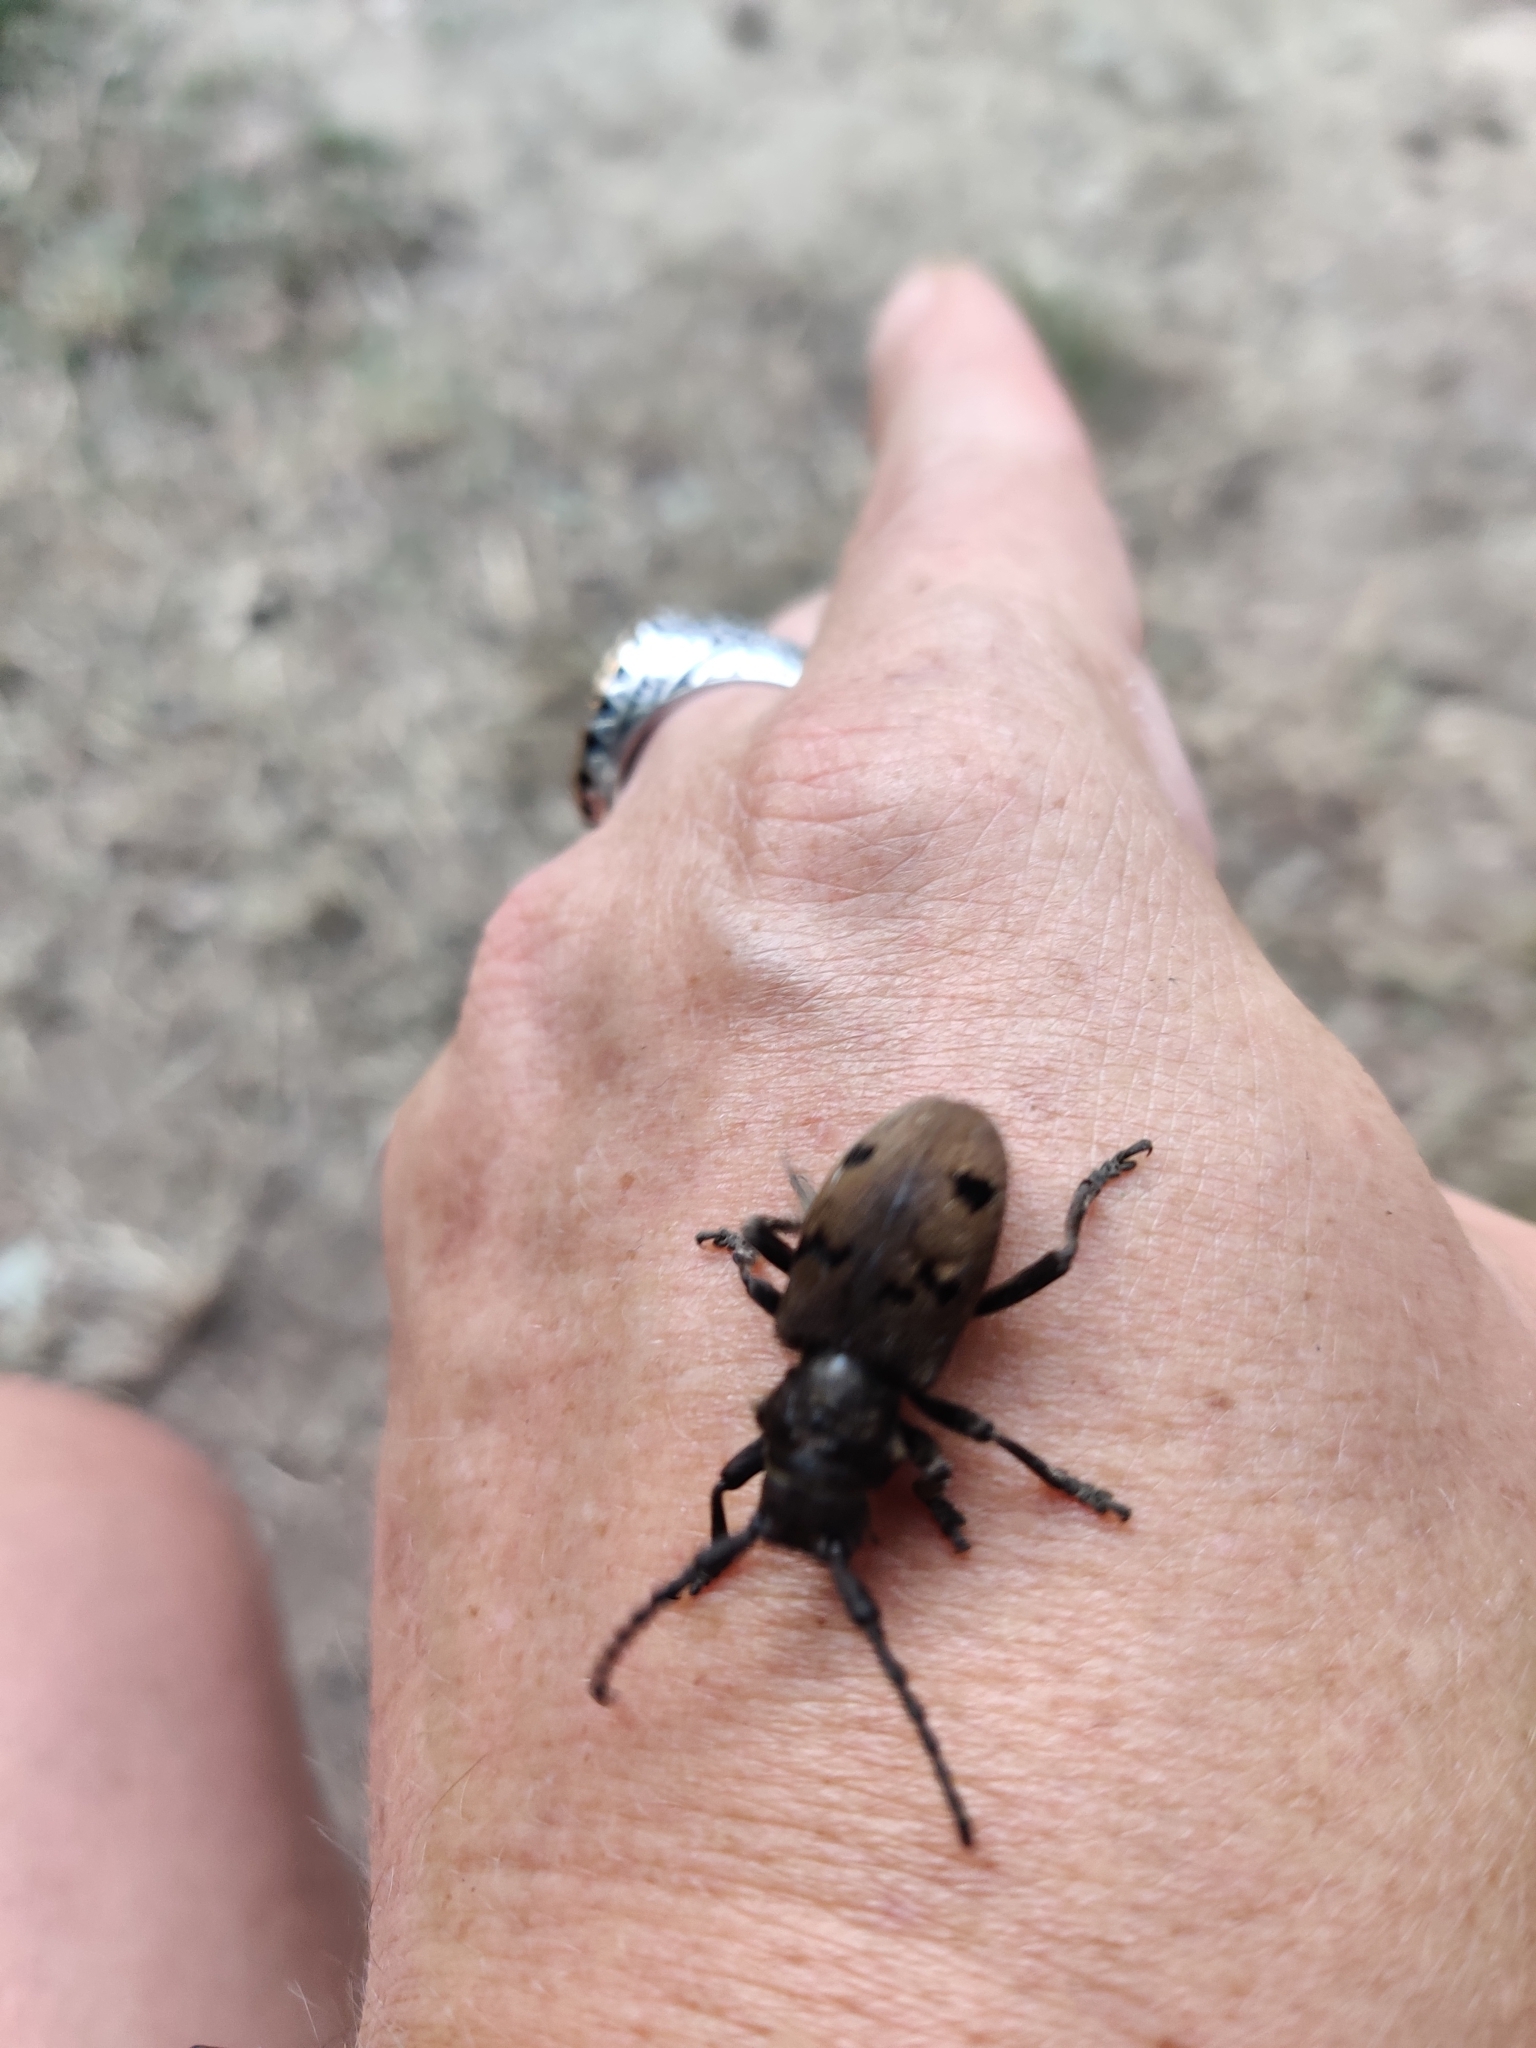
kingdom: Animalia
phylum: Arthropoda
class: Insecta
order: Coleoptera
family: Cerambycidae
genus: Herophila
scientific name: Herophila tristis
